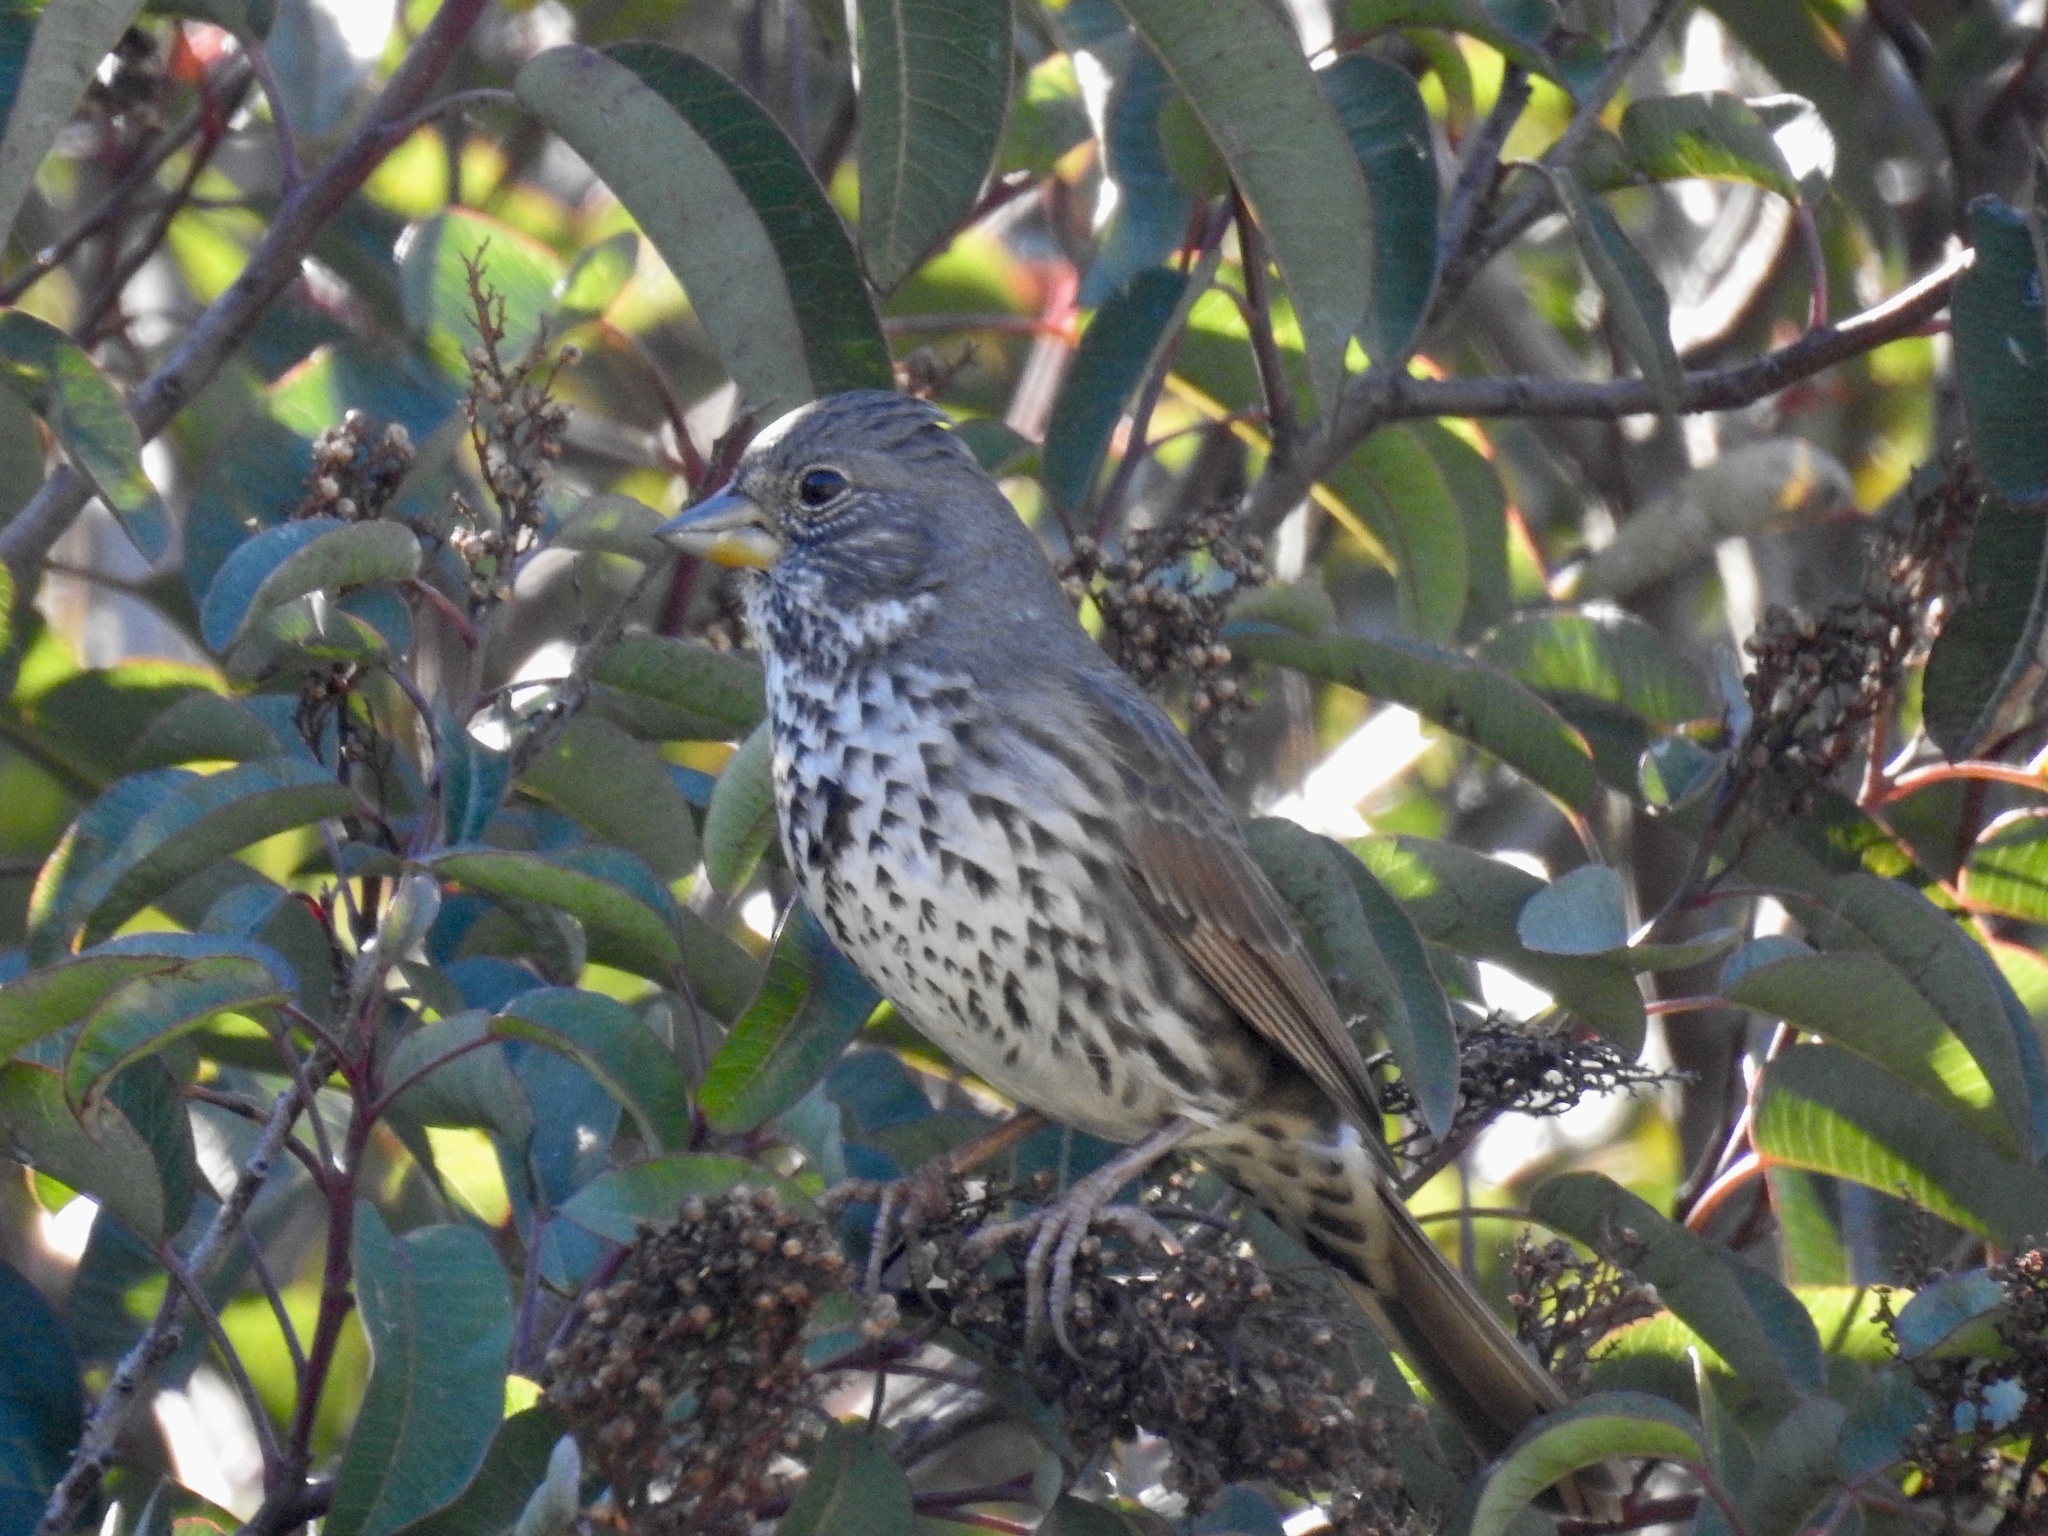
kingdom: Animalia
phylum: Chordata
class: Aves
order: Passeriformes
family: Passerellidae
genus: Passerella
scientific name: Passerella iliaca
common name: Fox sparrow
